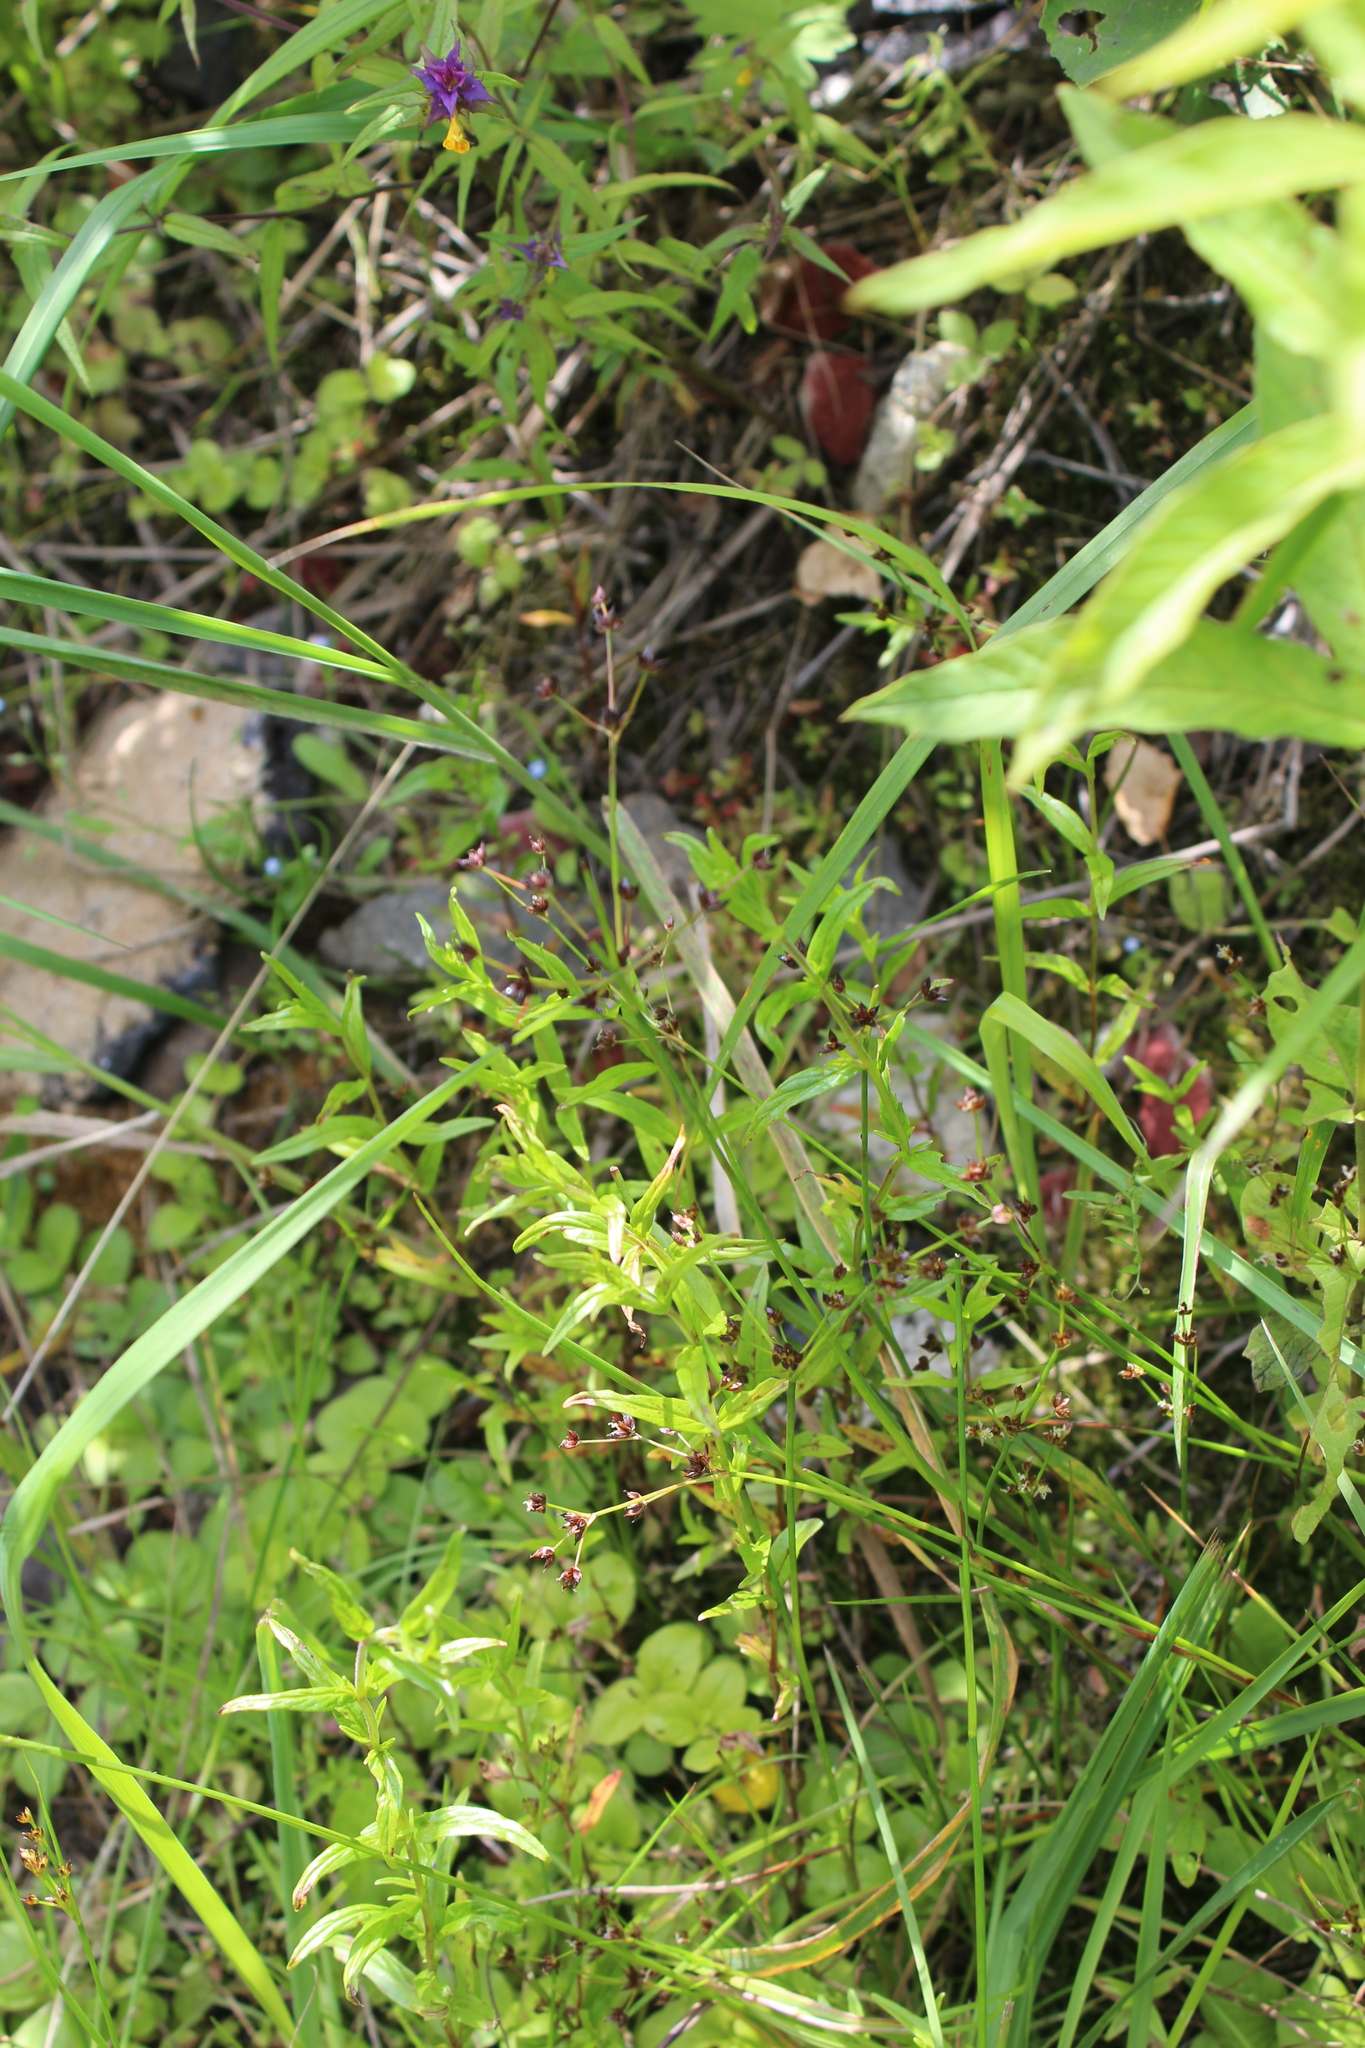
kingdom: Plantae
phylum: Tracheophyta
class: Liliopsida
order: Poales
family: Juncaceae
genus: Juncus
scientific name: Juncus alpinoarticulatus
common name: Alpine rush
